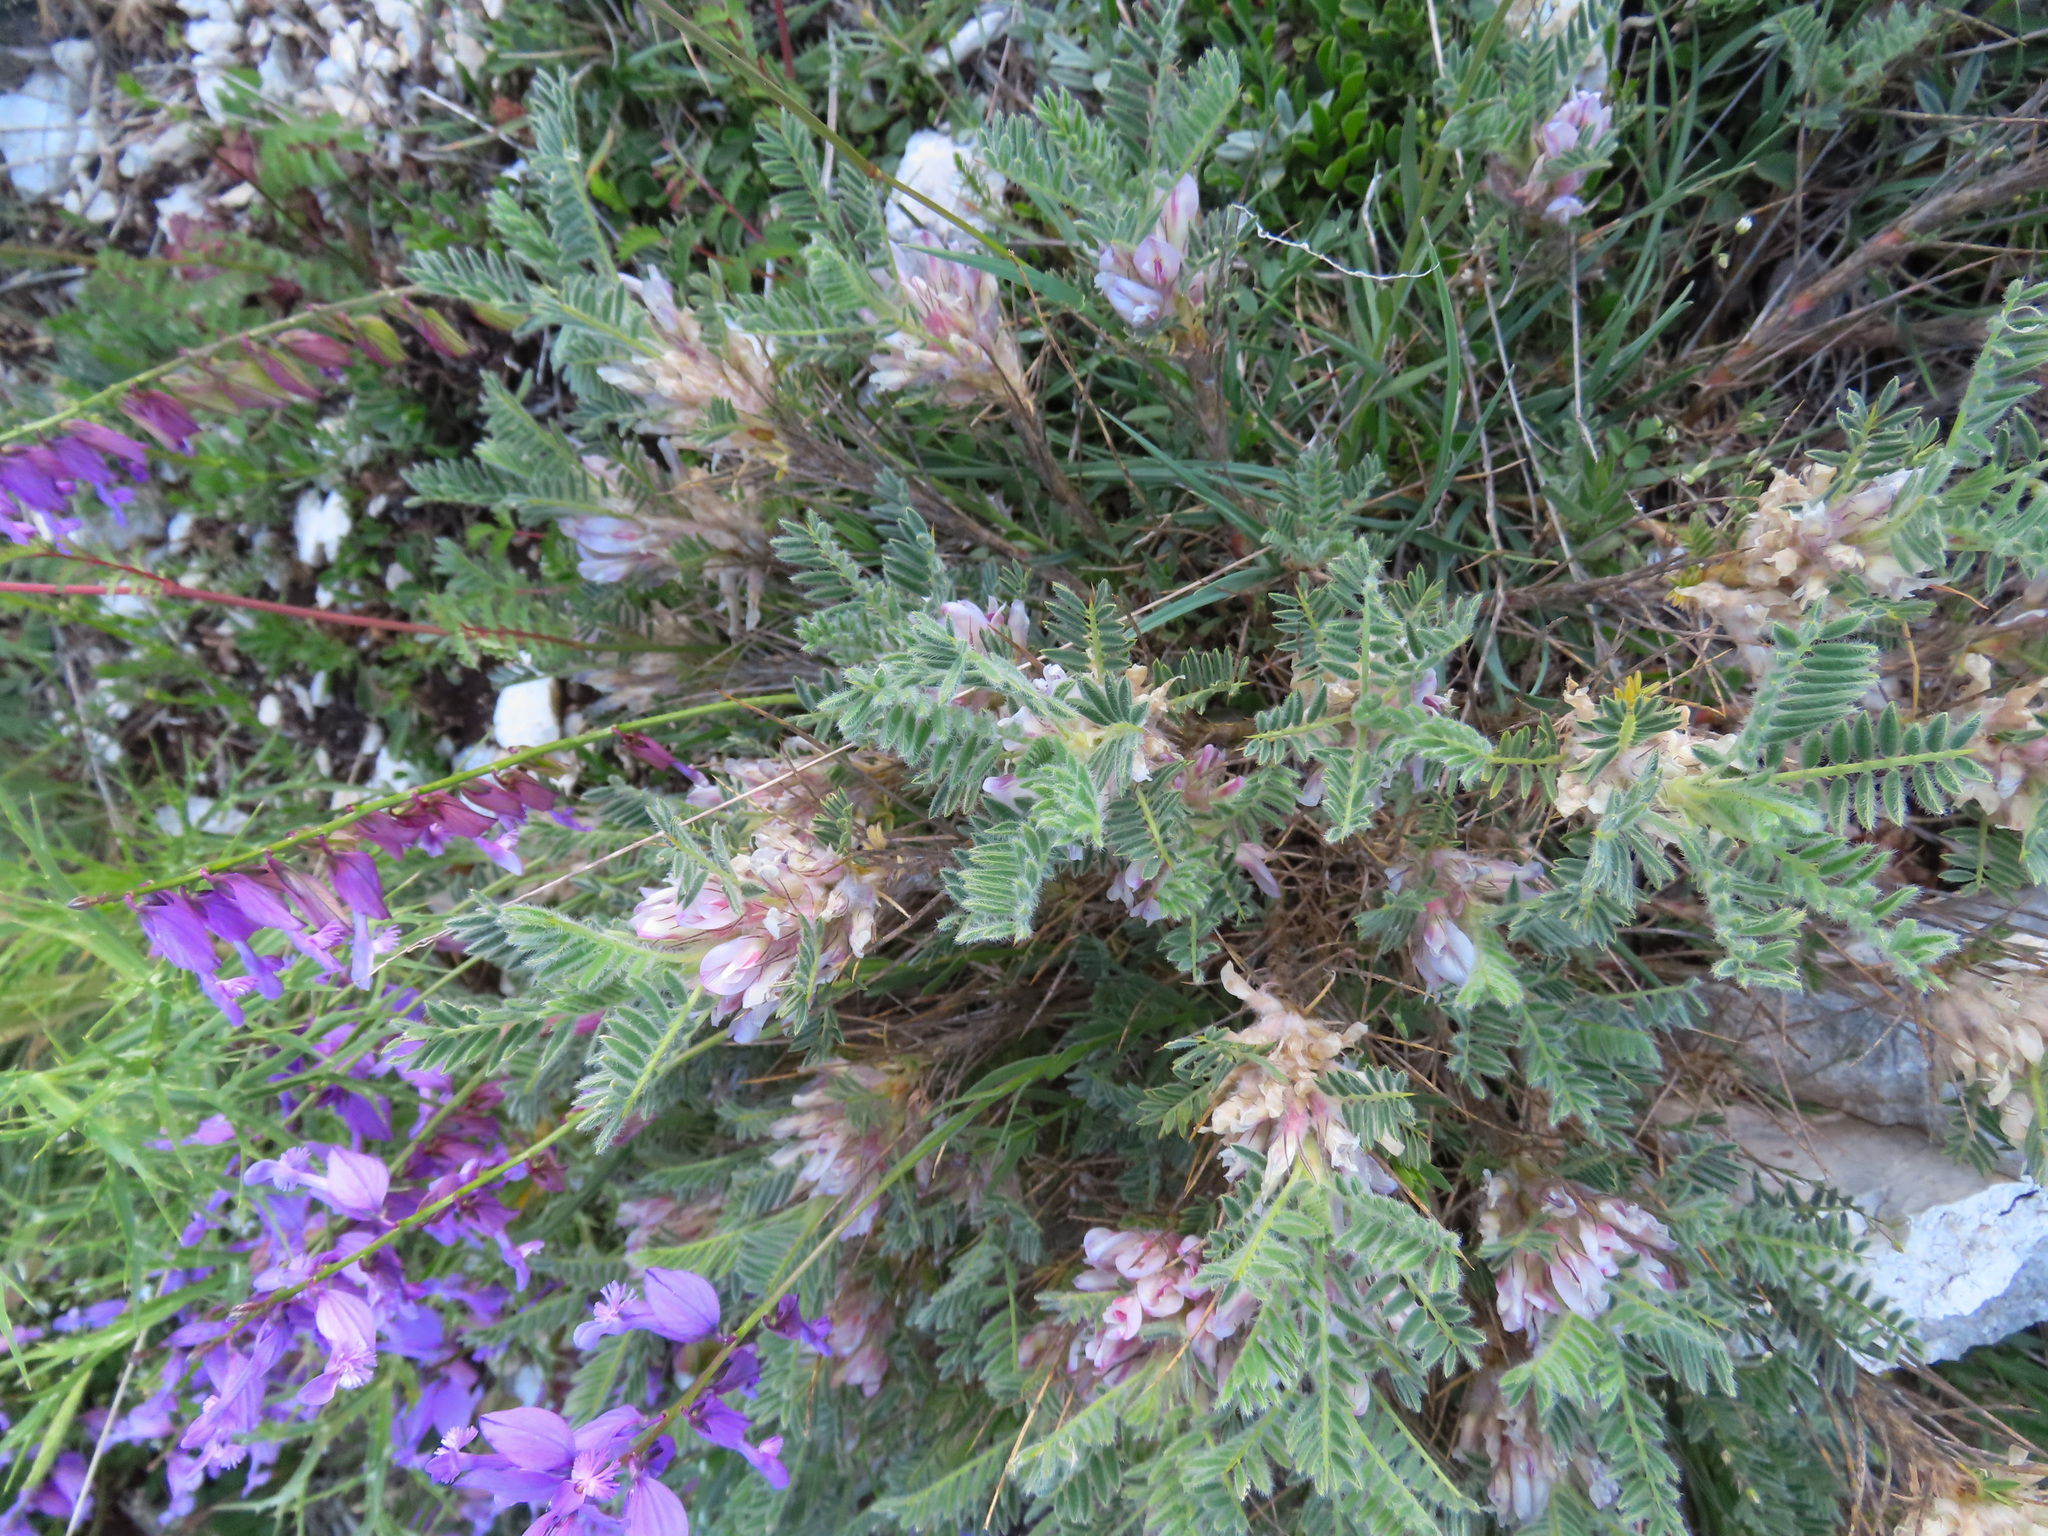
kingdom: Plantae
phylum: Tracheophyta
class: Magnoliopsida
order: Fabales
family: Fabaceae
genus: Astragalus
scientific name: Astragalus sempervirens
